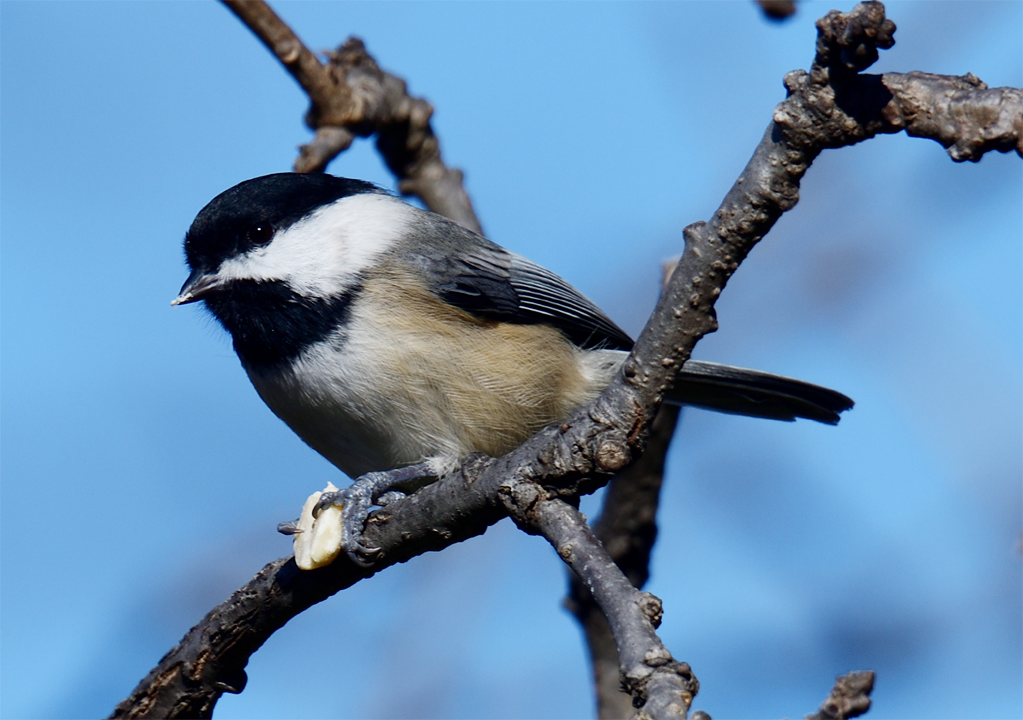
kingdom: Animalia
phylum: Chordata
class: Aves
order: Passeriformes
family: Paridae
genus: Poecile
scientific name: Poecile atricapillus
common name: Black-capped chickadee
